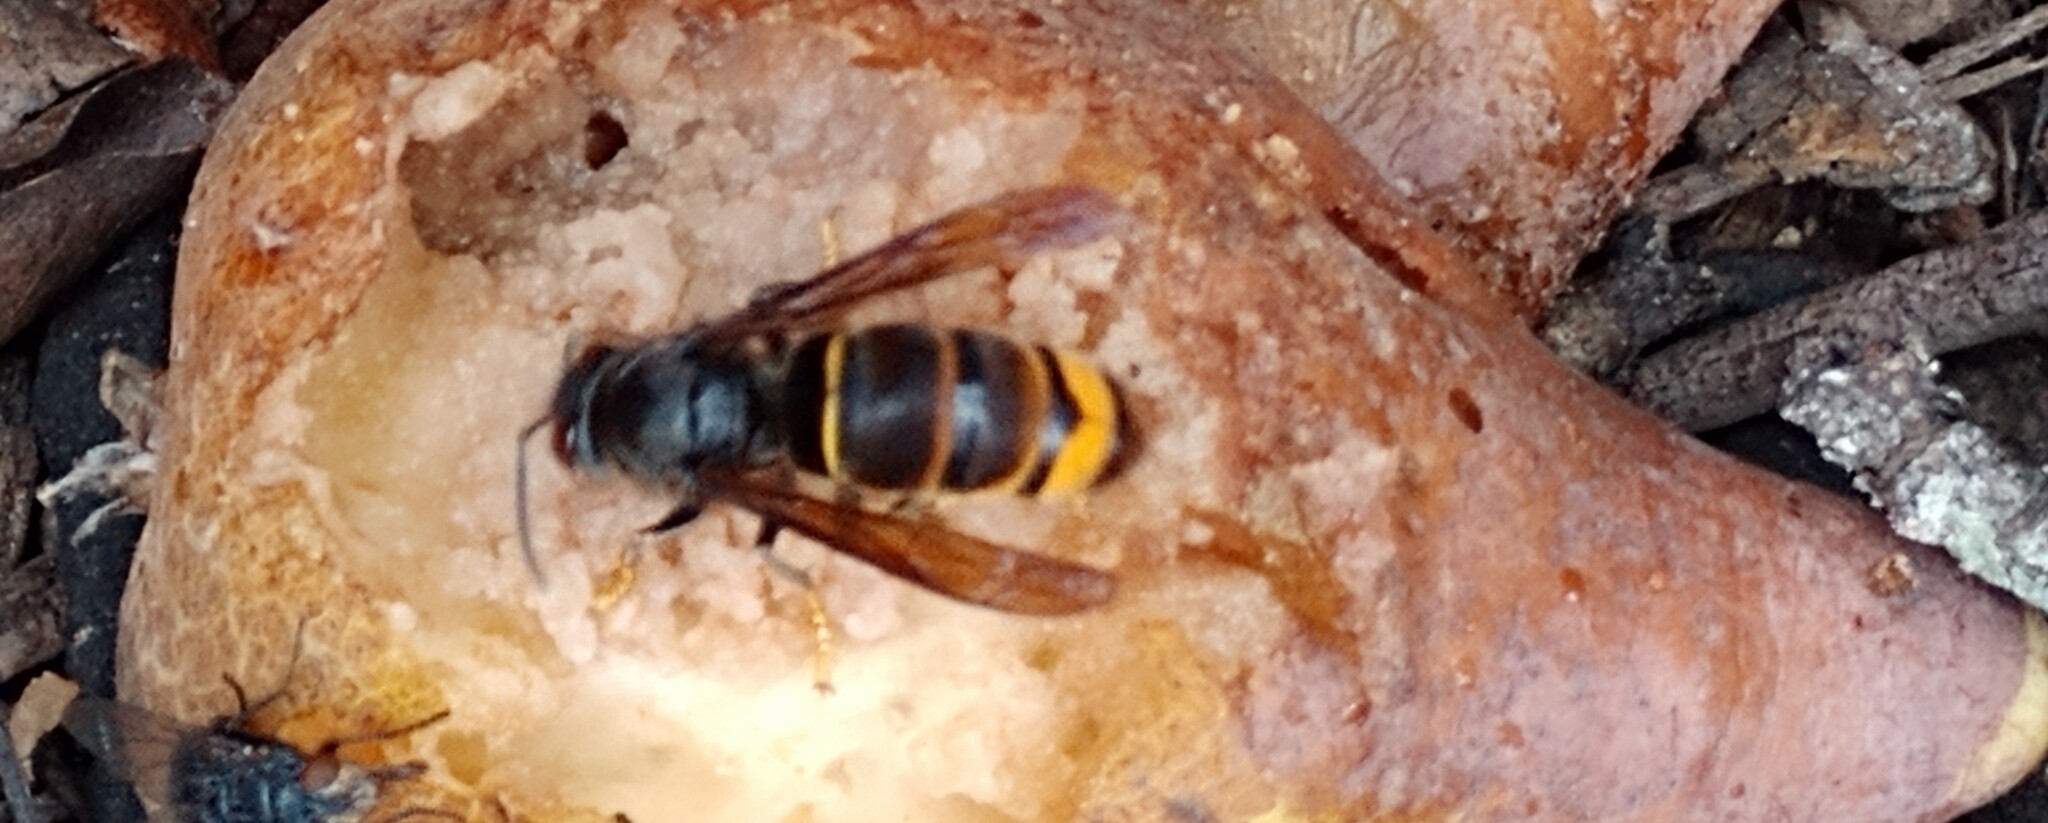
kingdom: Animalia
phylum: Arthropoda
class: Insecta
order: Hymenoptera
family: Vespidae
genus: Vespa
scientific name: Vespa velutina
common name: Asian hornet
